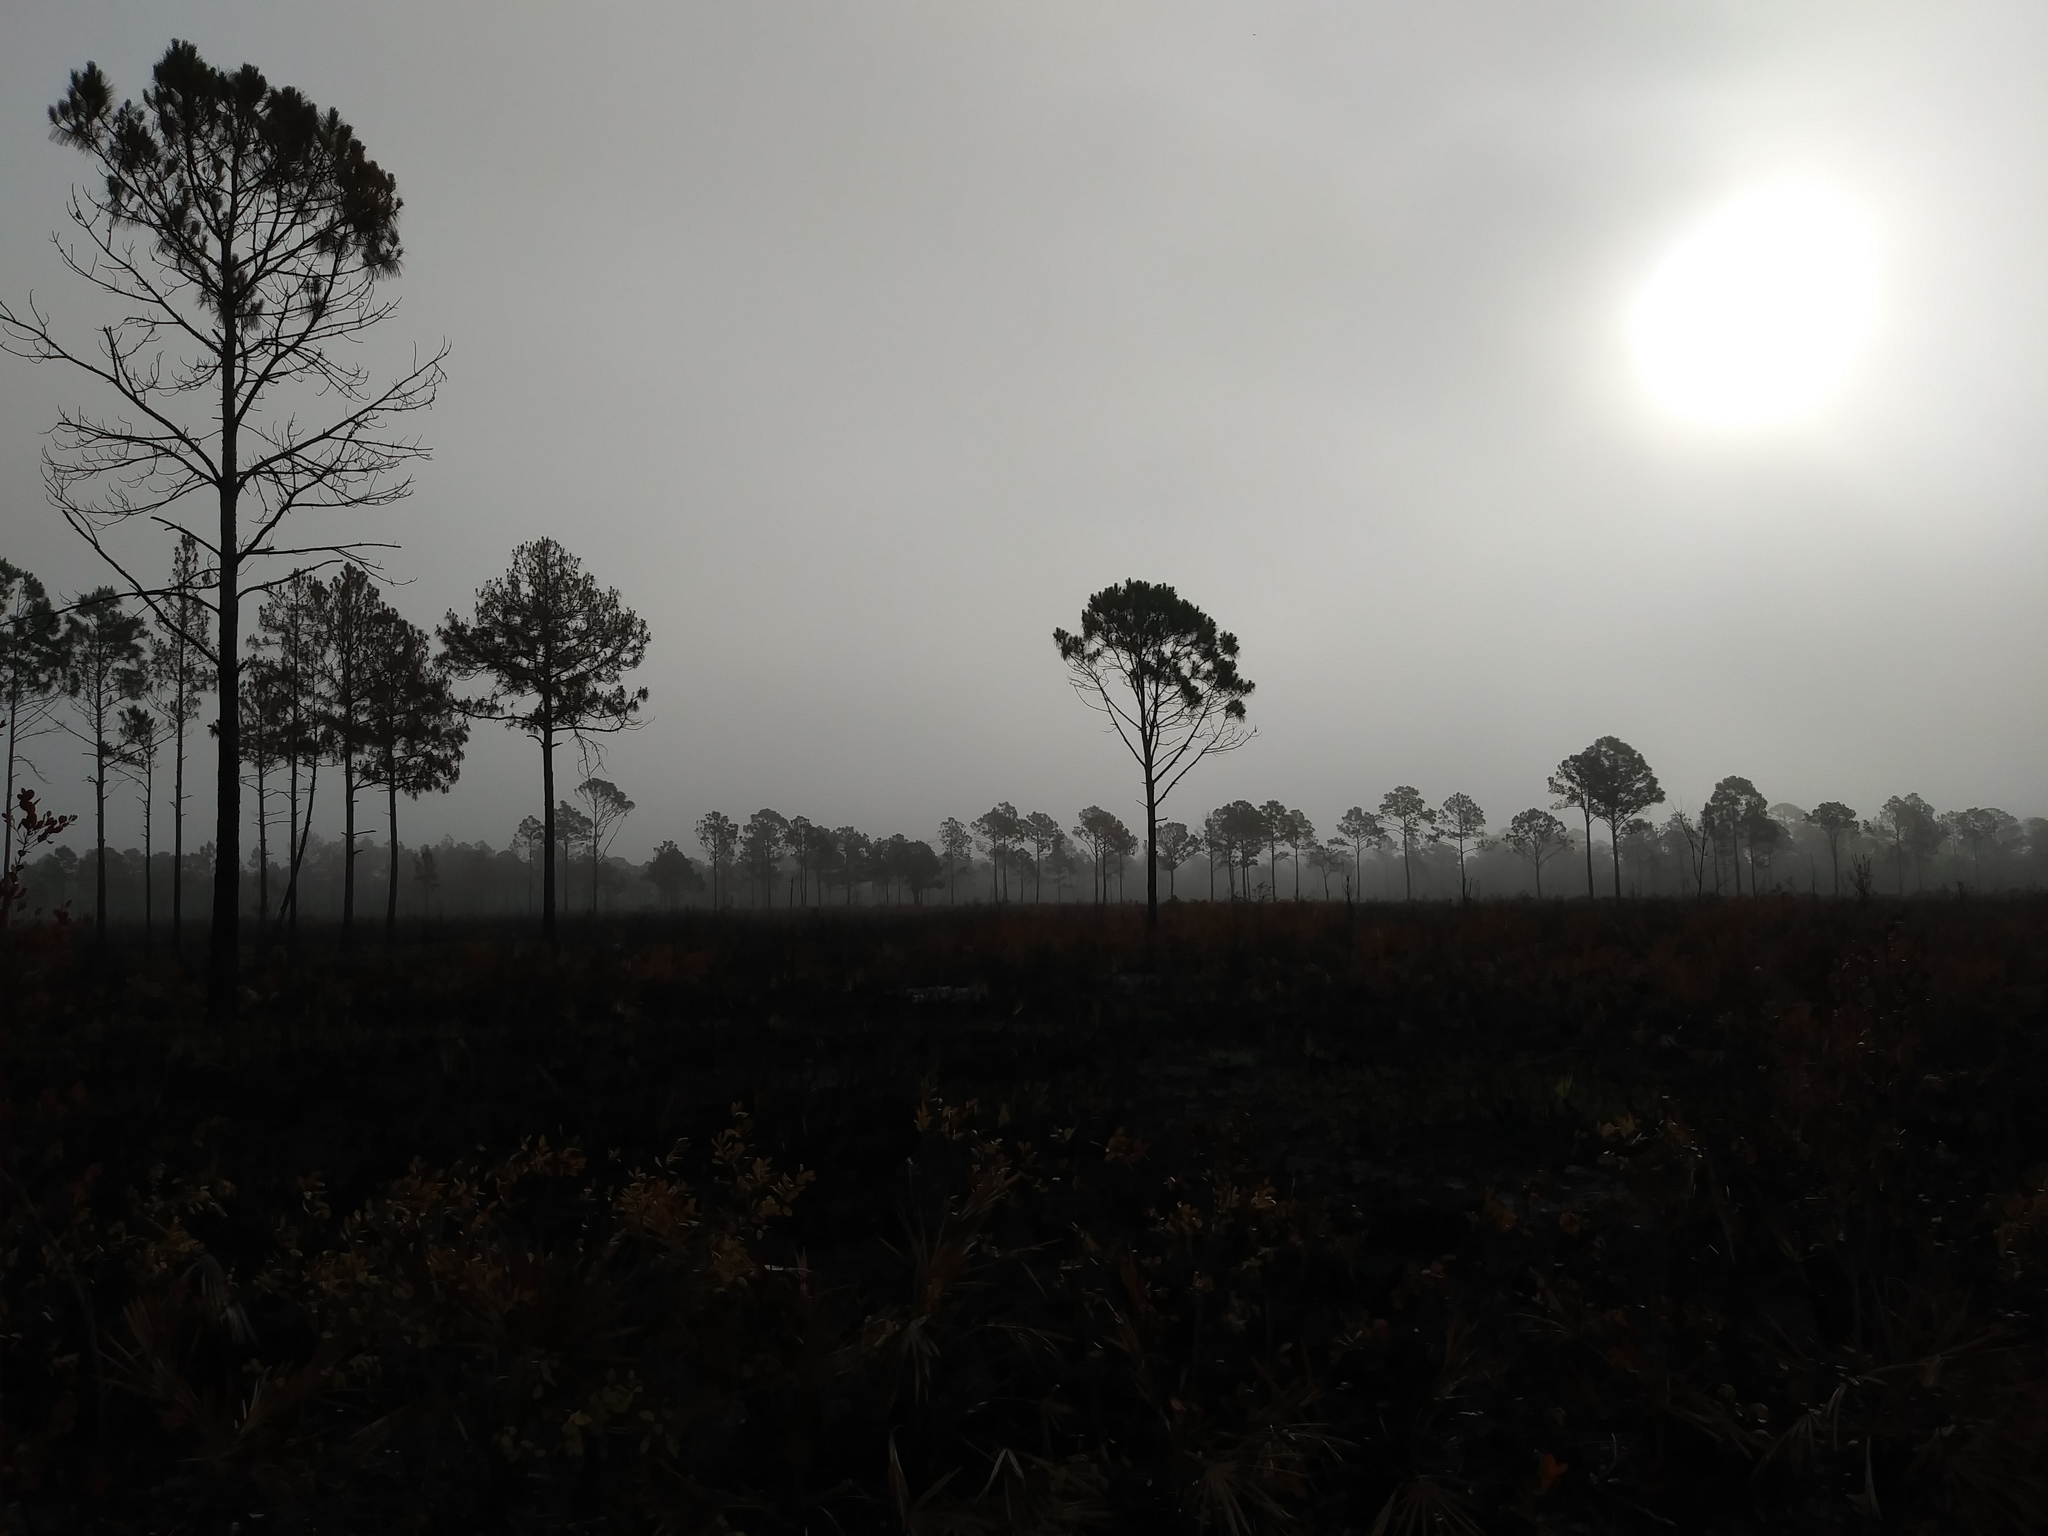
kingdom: Plantae
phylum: Tracheophyta
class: Pinopsida
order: Pinales
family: Pinaceae
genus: Pinus
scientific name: Pinus elliottii
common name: Slash pine
